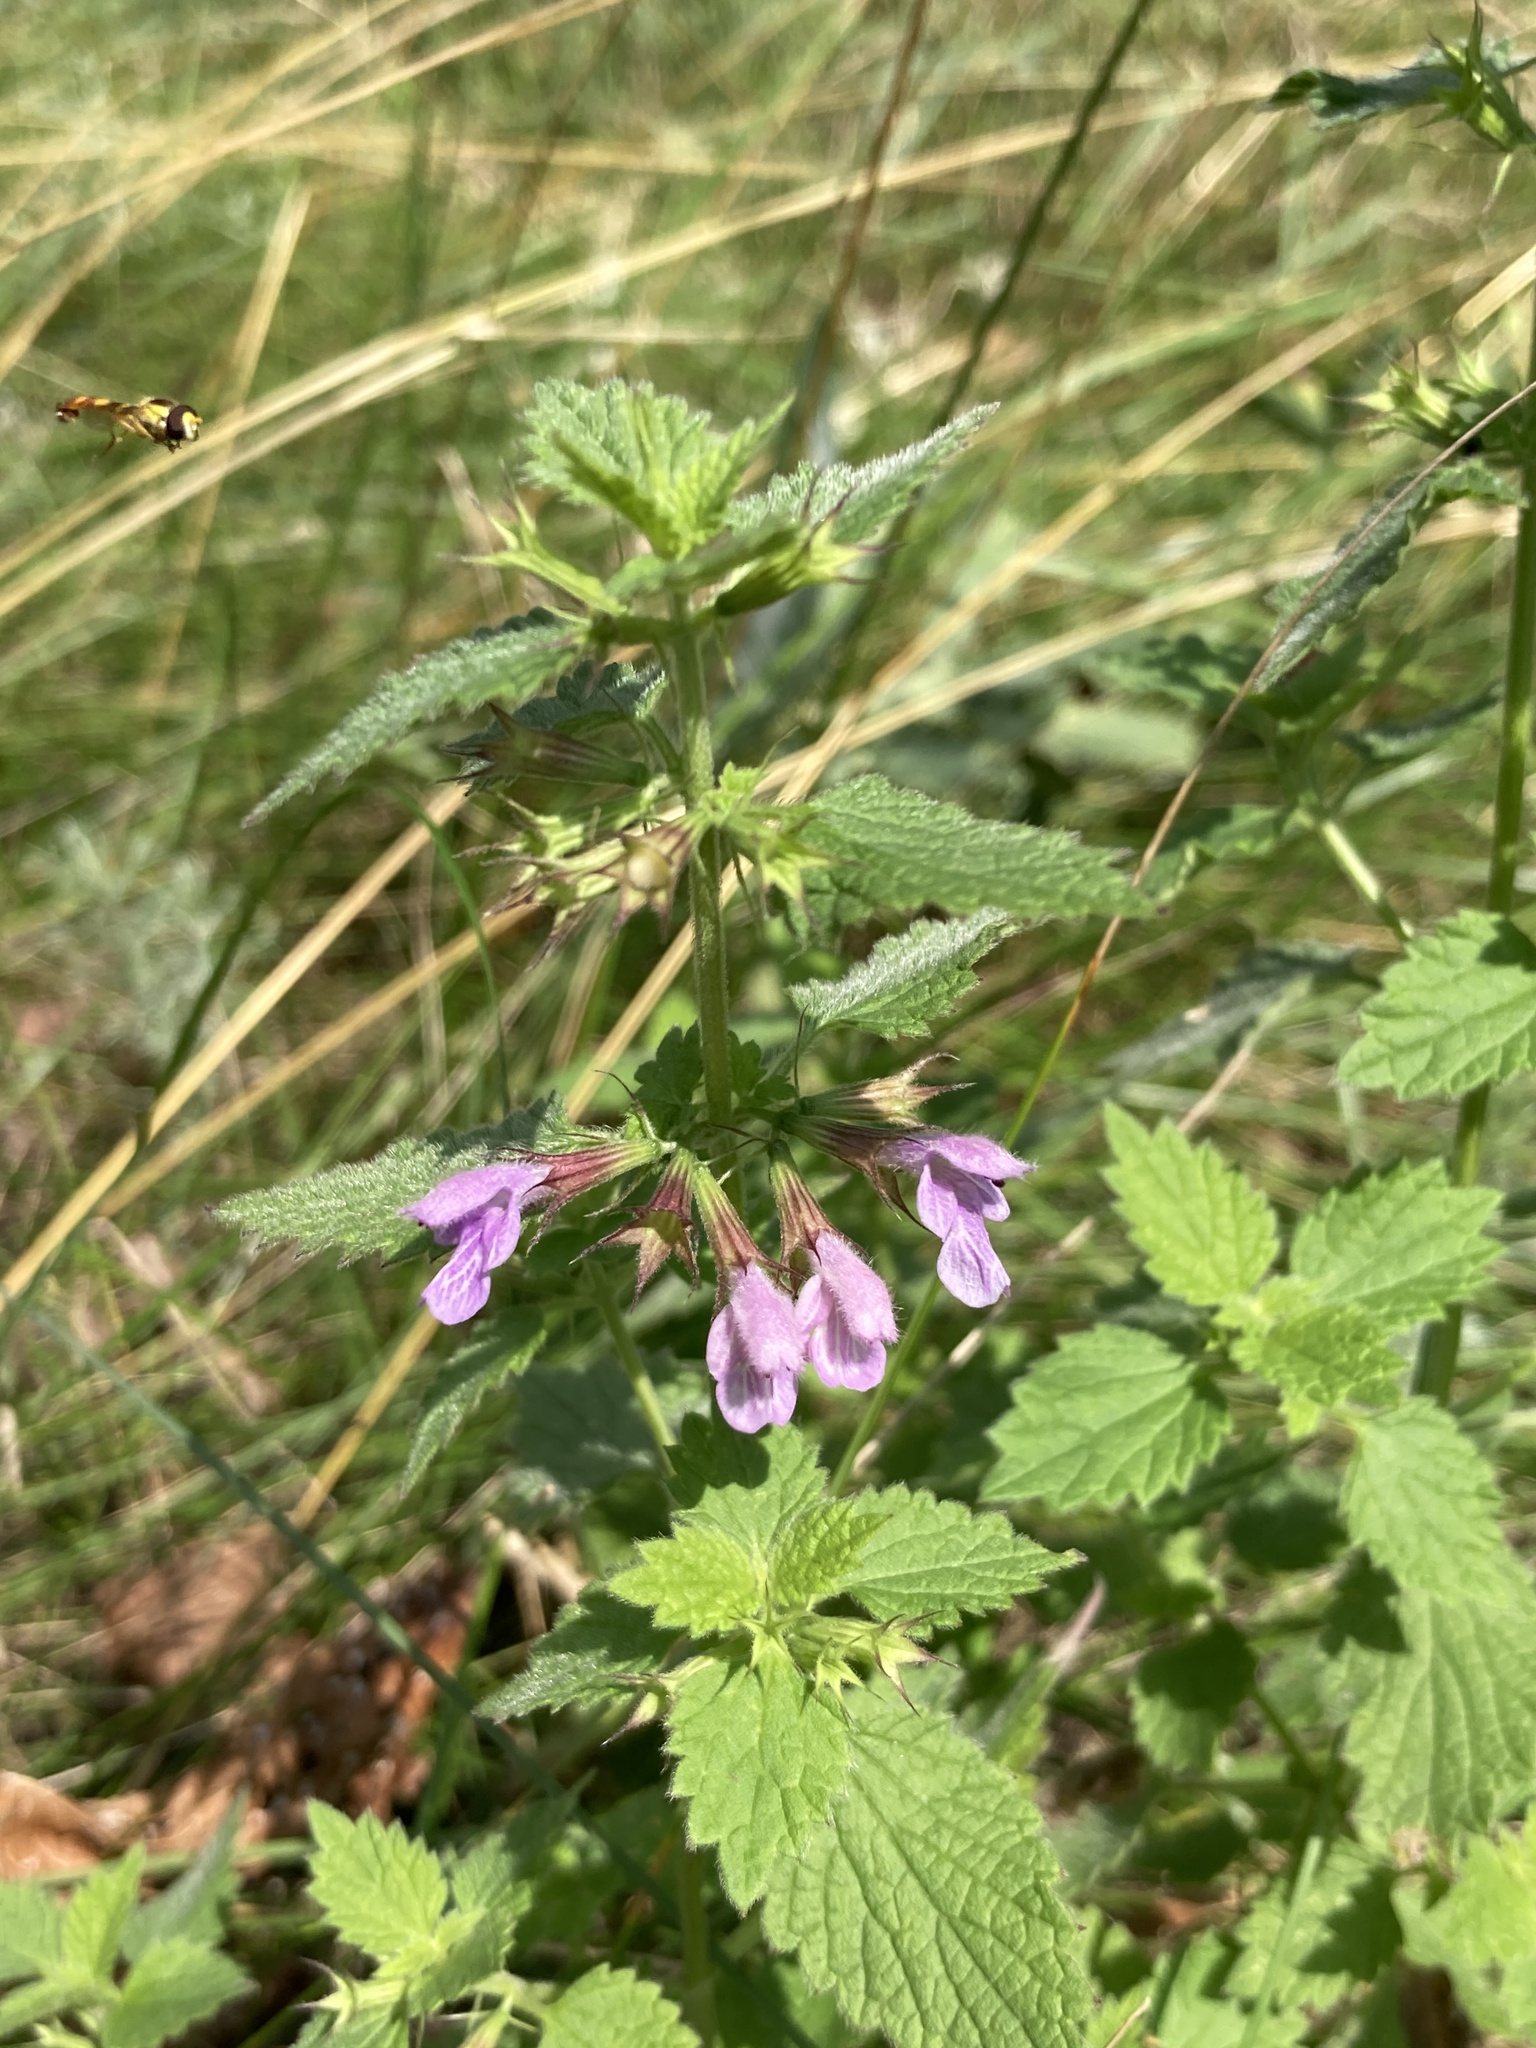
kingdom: Plantae
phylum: Tracheophyta
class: Magnoliopsida
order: Lamiales
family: Lamiaceae
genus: Ballota
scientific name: Ballota nigra
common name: Black horehound
